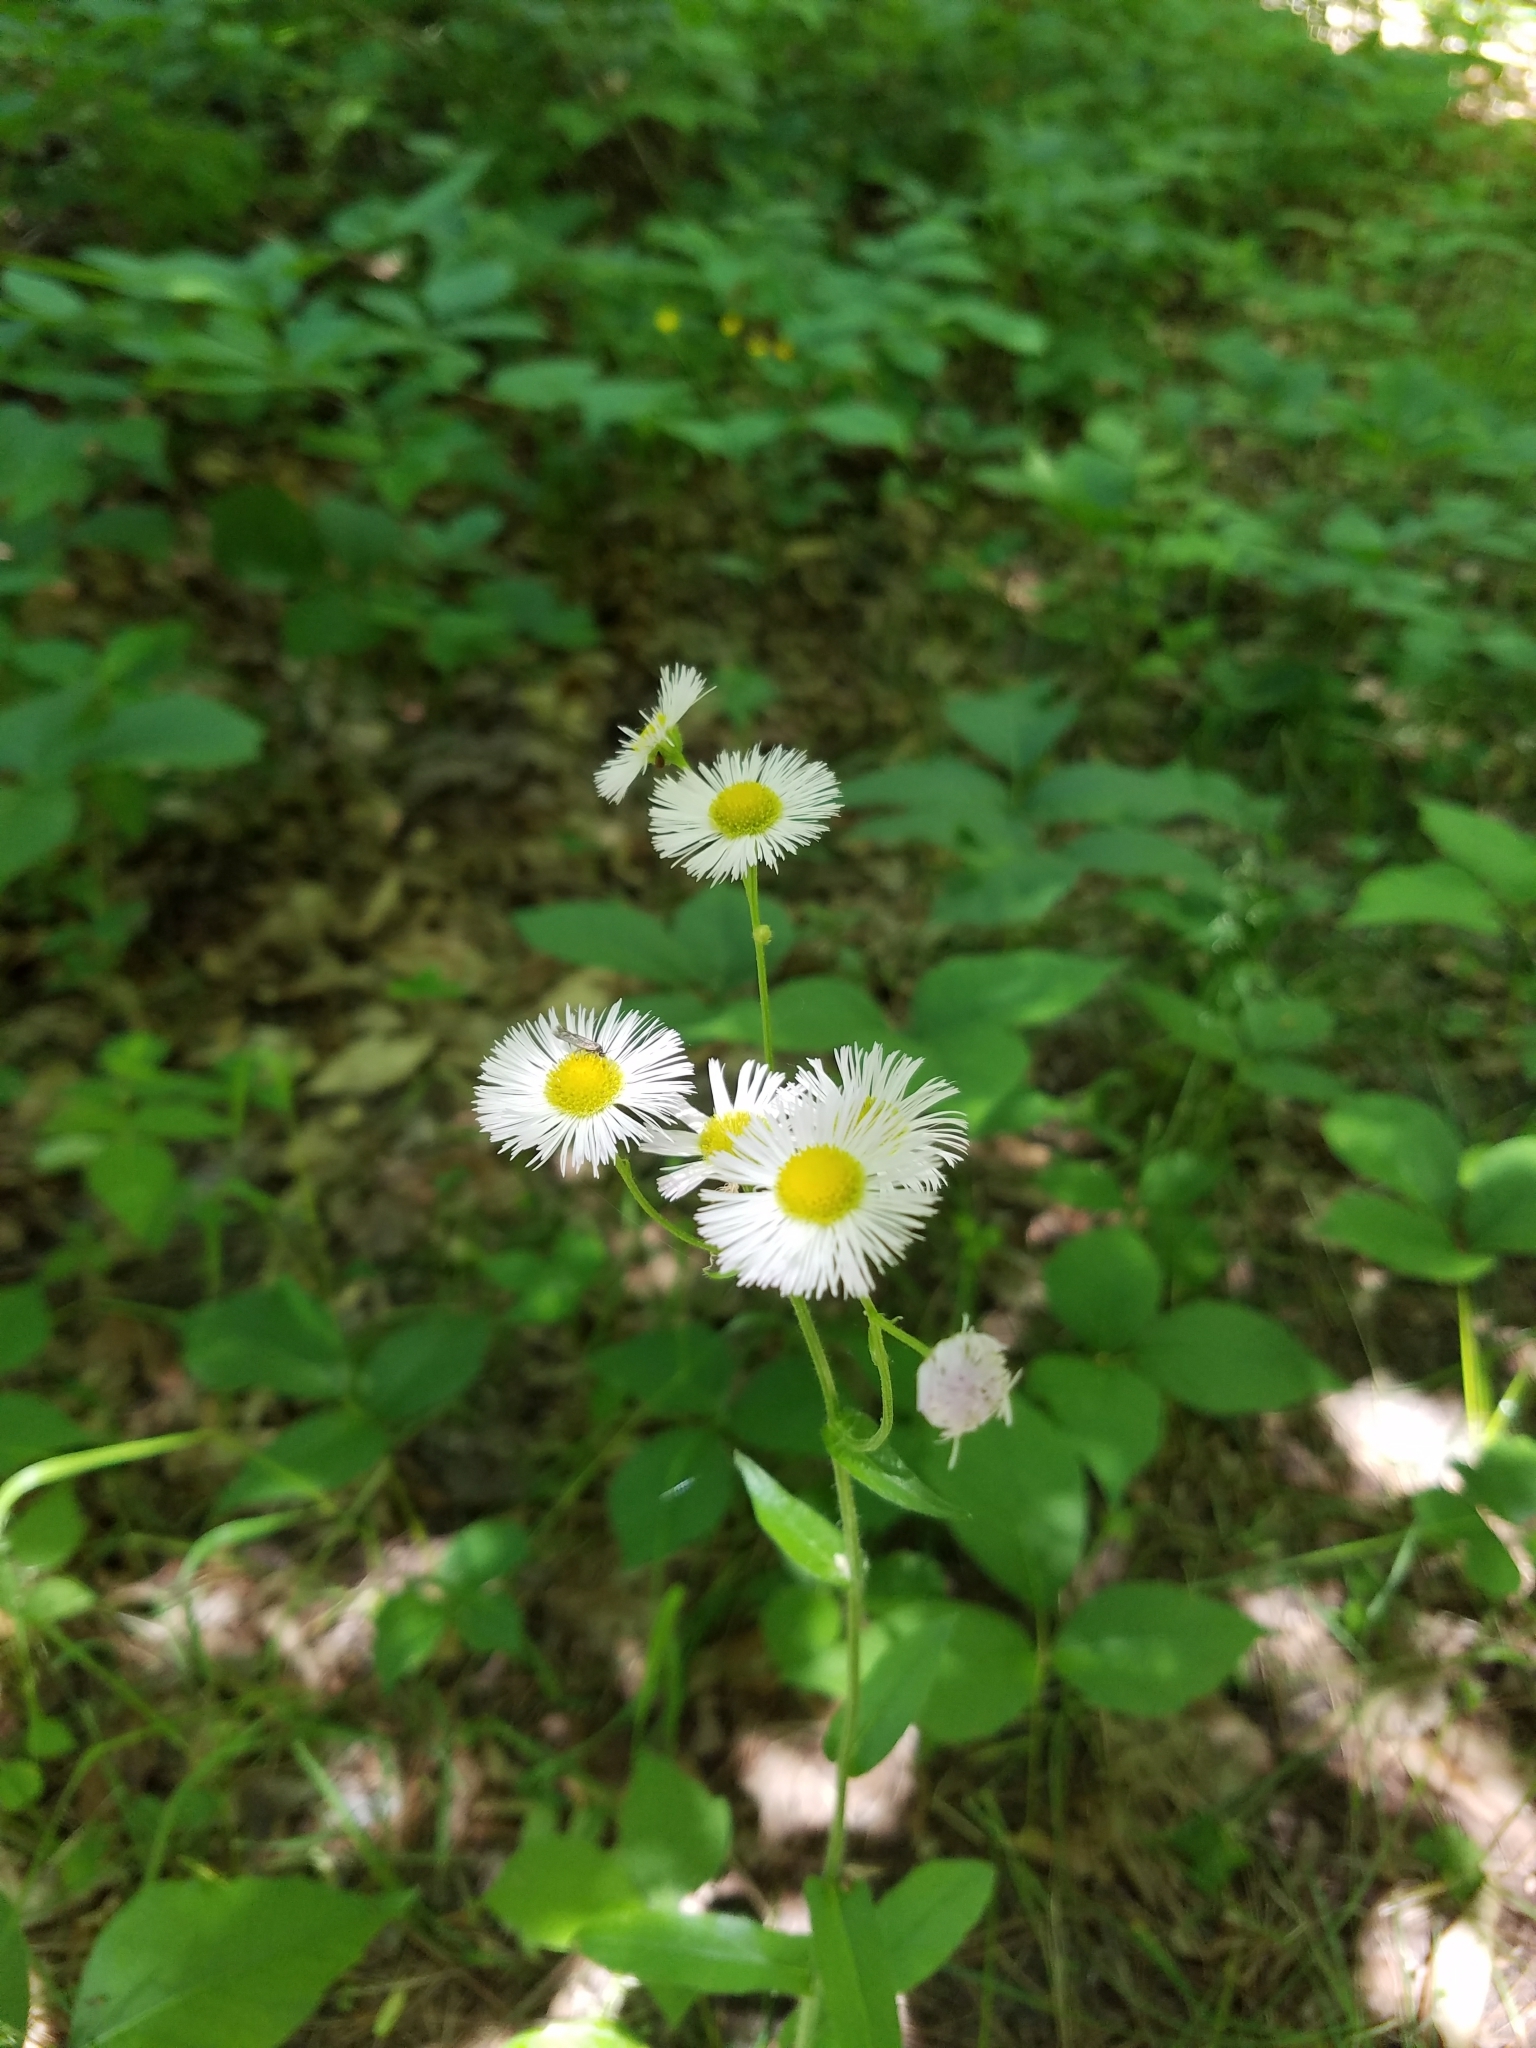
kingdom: Plantae
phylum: Tracheophyta
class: Magnoliopsida
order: Asterales
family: Asteraceae
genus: Erigeron
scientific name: Erigeron philadelphicus
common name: Robin's-plantain
